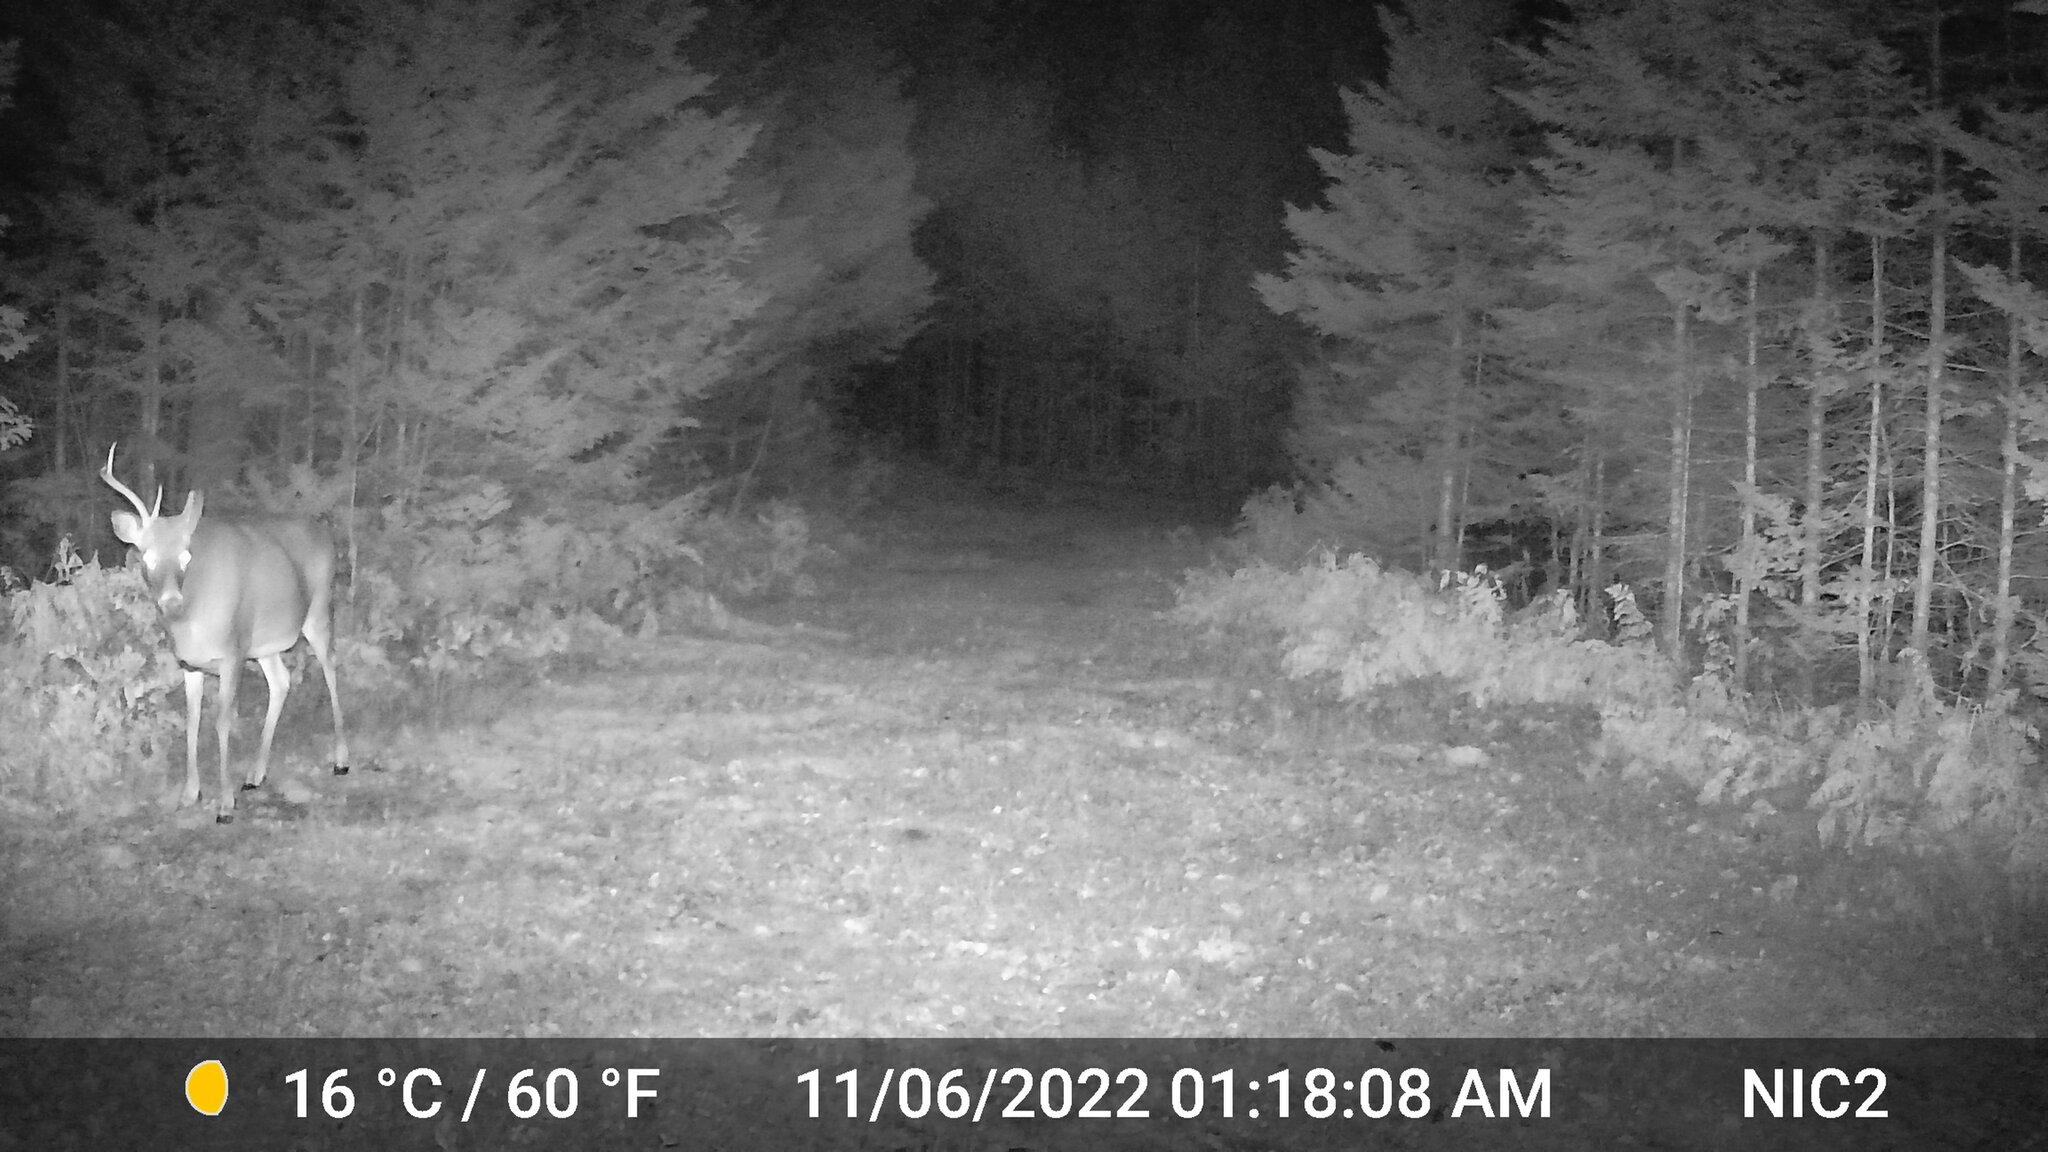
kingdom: Animalia
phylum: Chordata
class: Mammalia
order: Artiodactyla
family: Cervidae
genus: Odocoileus
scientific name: Odocoileus virginianus
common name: White-tailed deer
